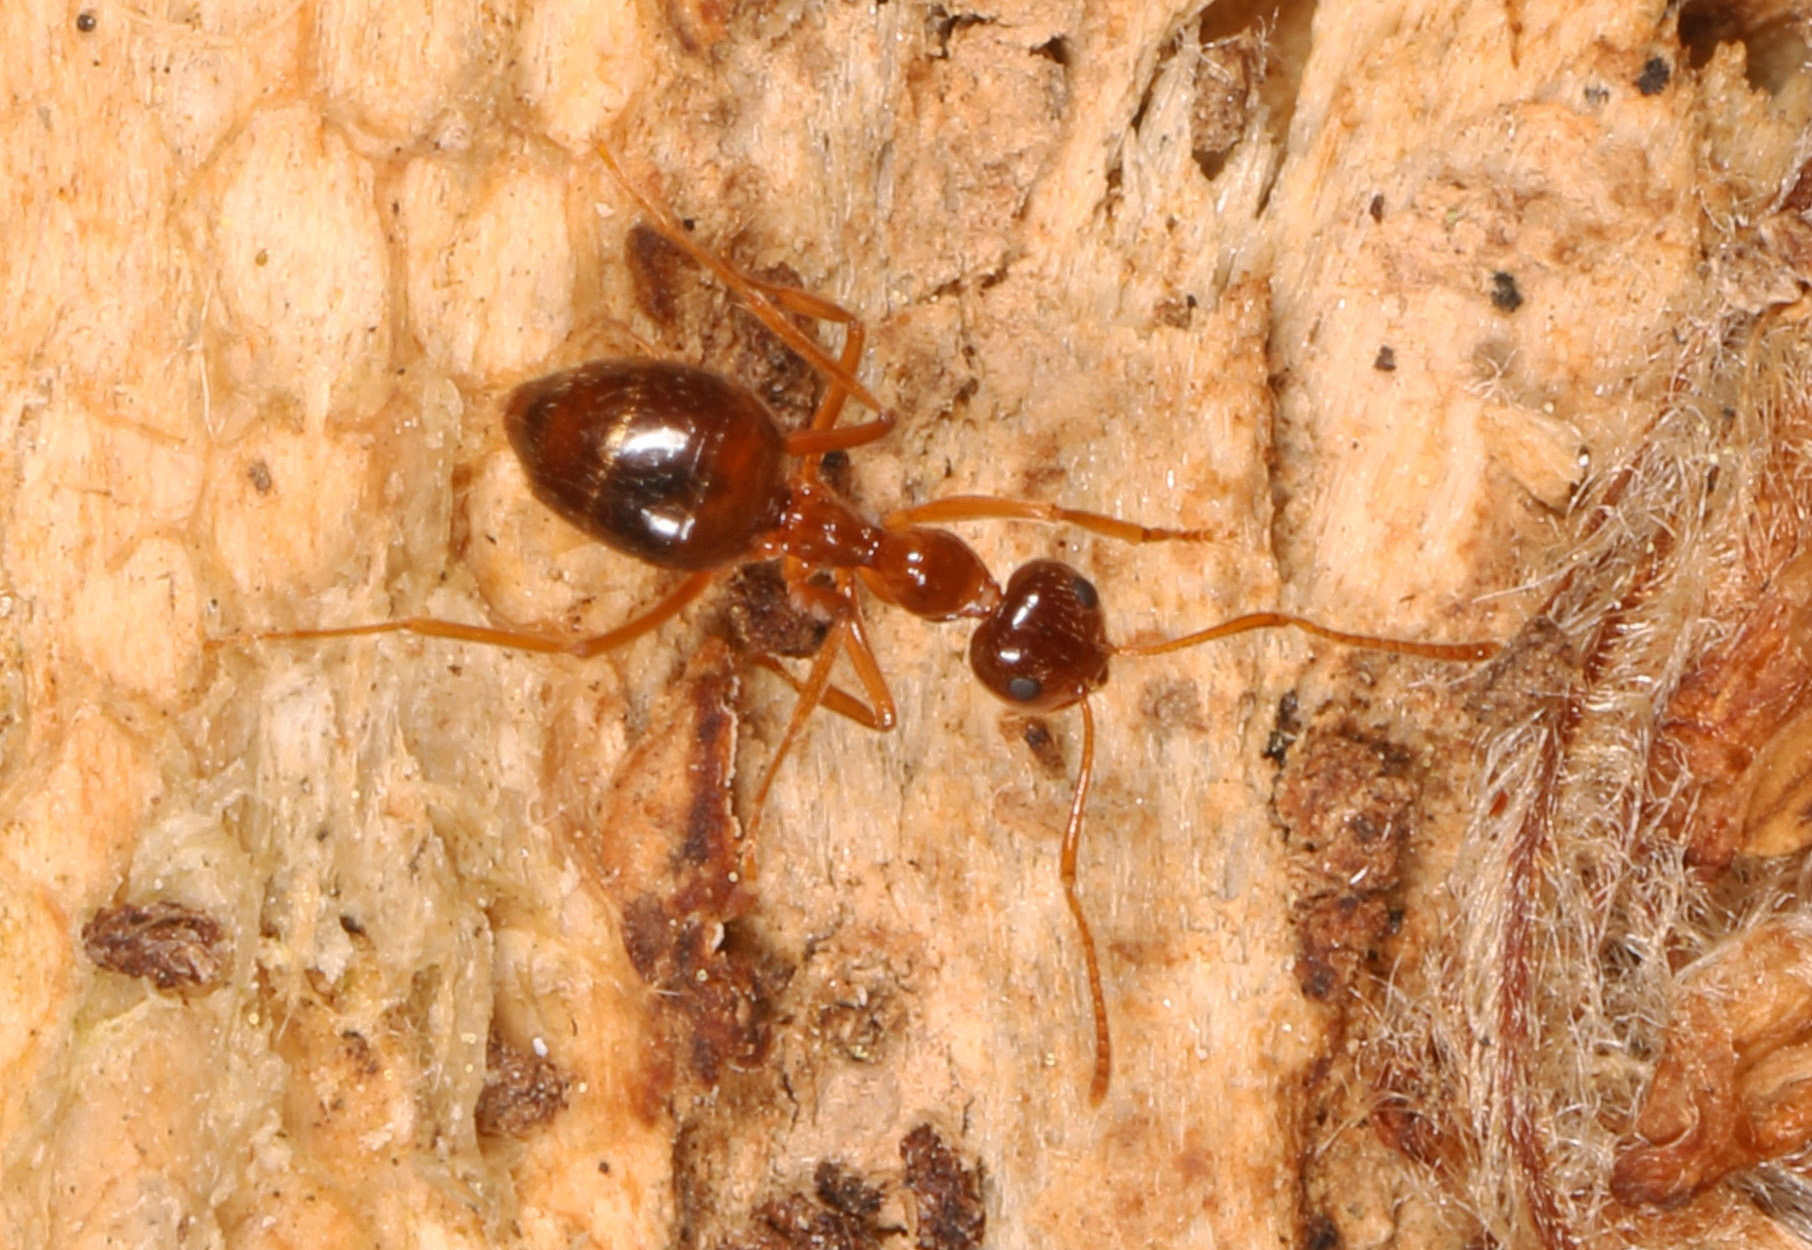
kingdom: Animalia
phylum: Arthropoda
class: Insecta
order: Hymenoptera
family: Formicidae
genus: Prenolepis
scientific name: Prenolepis imparis
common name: Small honey ant
